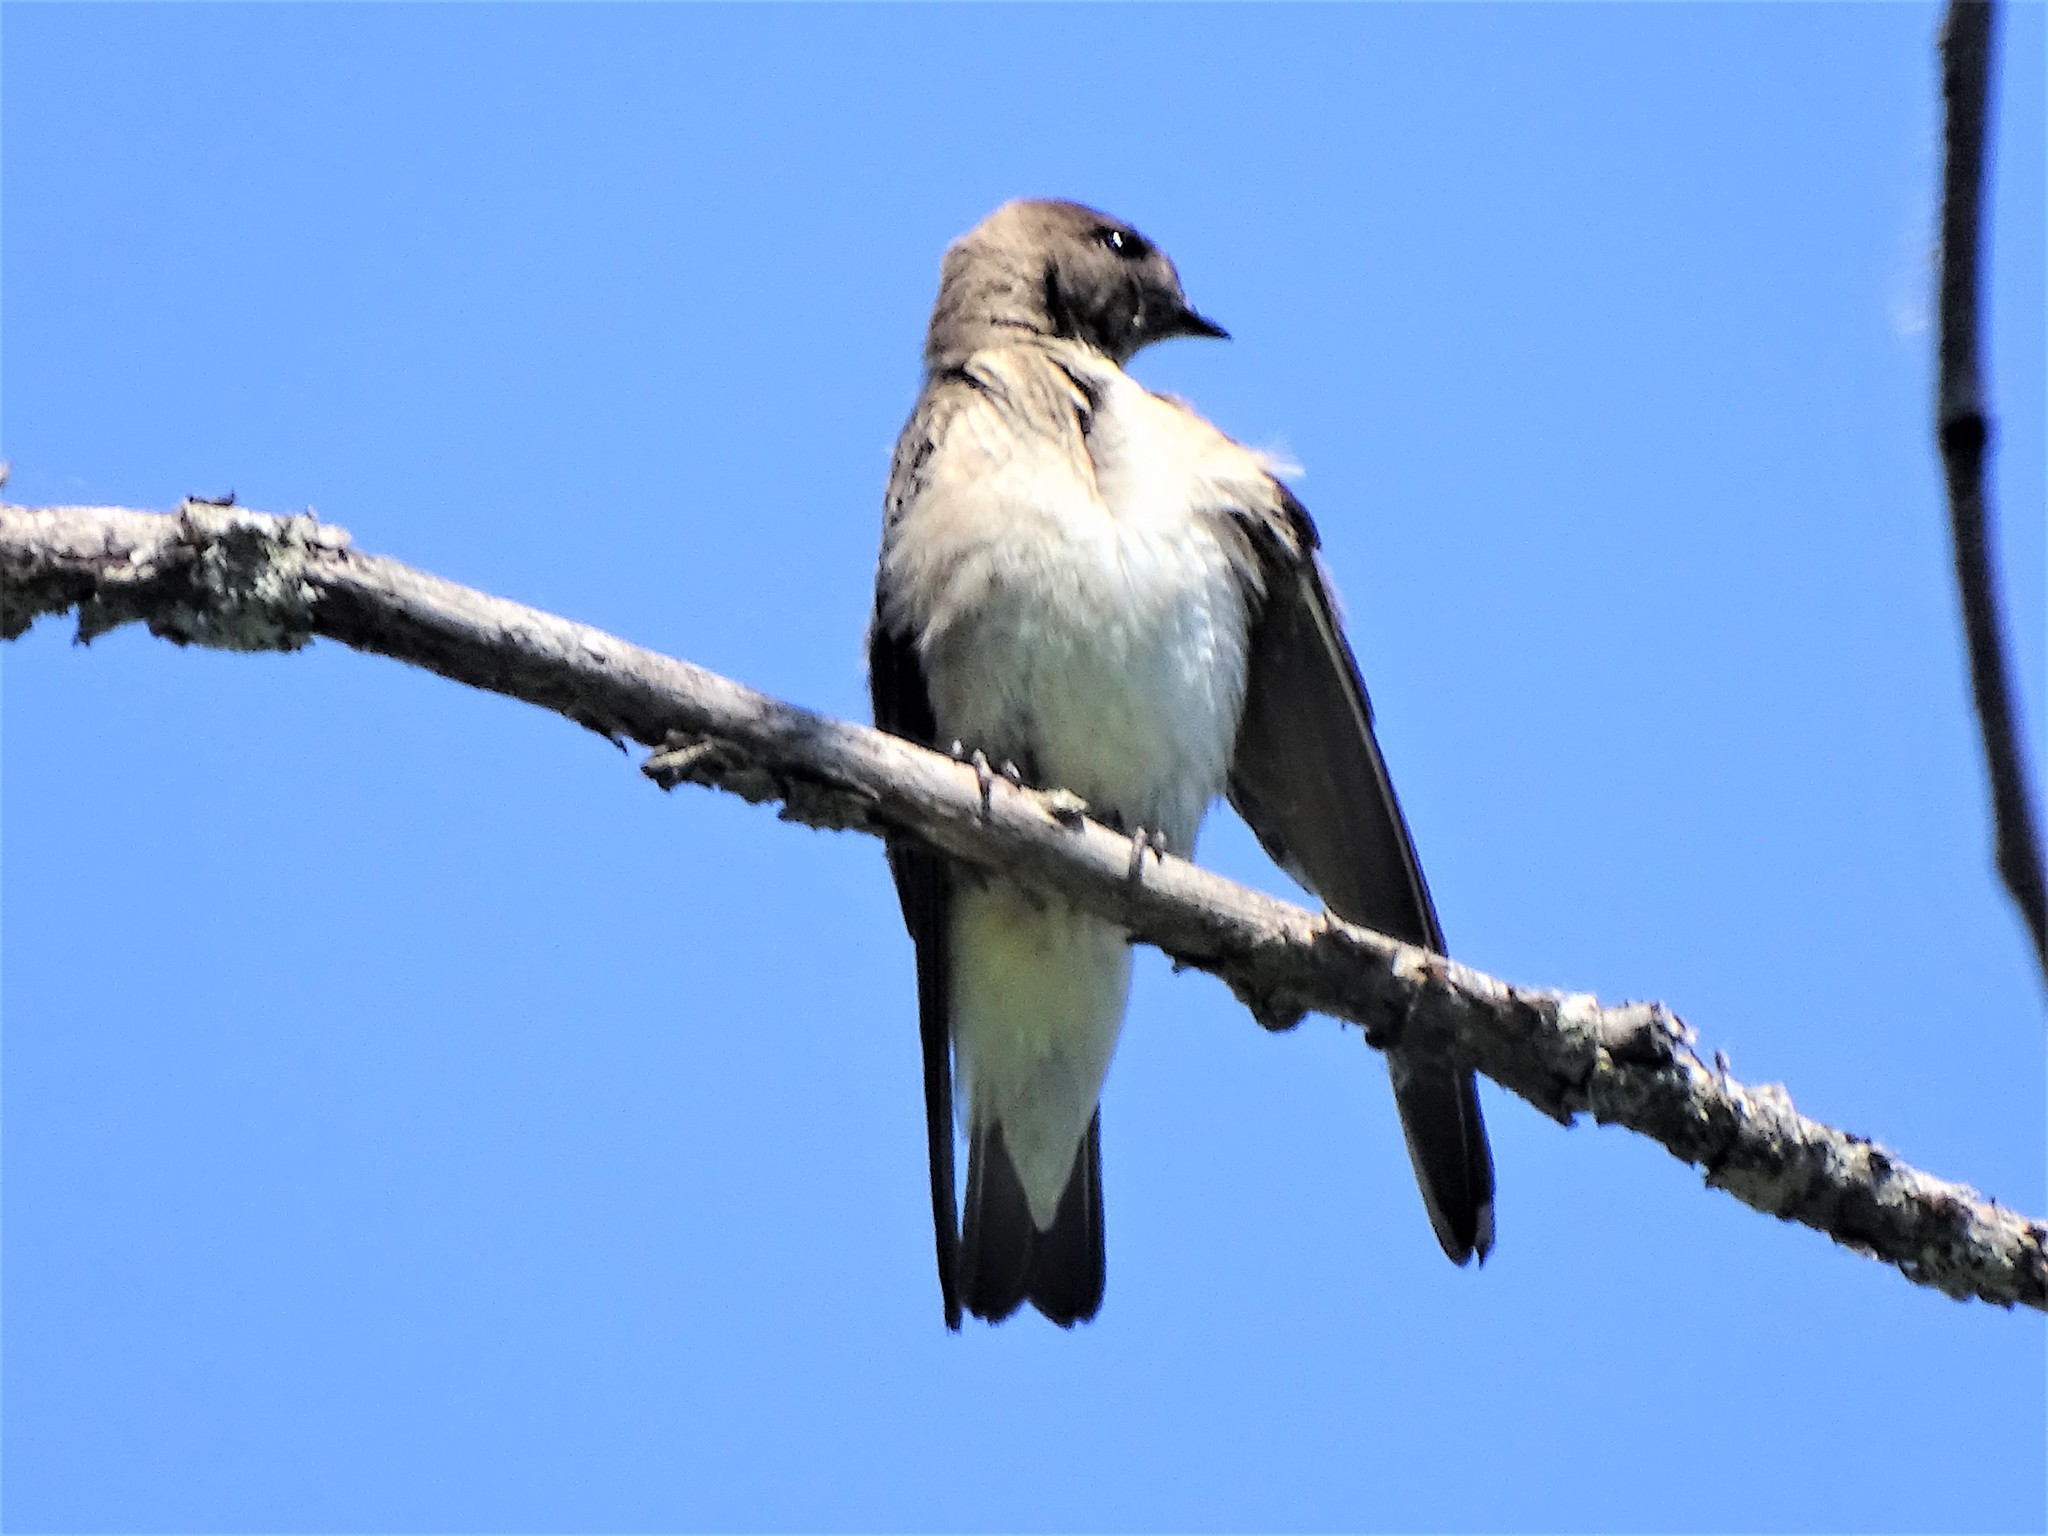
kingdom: Animalia
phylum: Chordata
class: Aves
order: Passeriformes
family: Hirundinidae
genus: Stelgidopteryx
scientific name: Stelgidopteryx serripennis
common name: Northern rough-winged swallow
